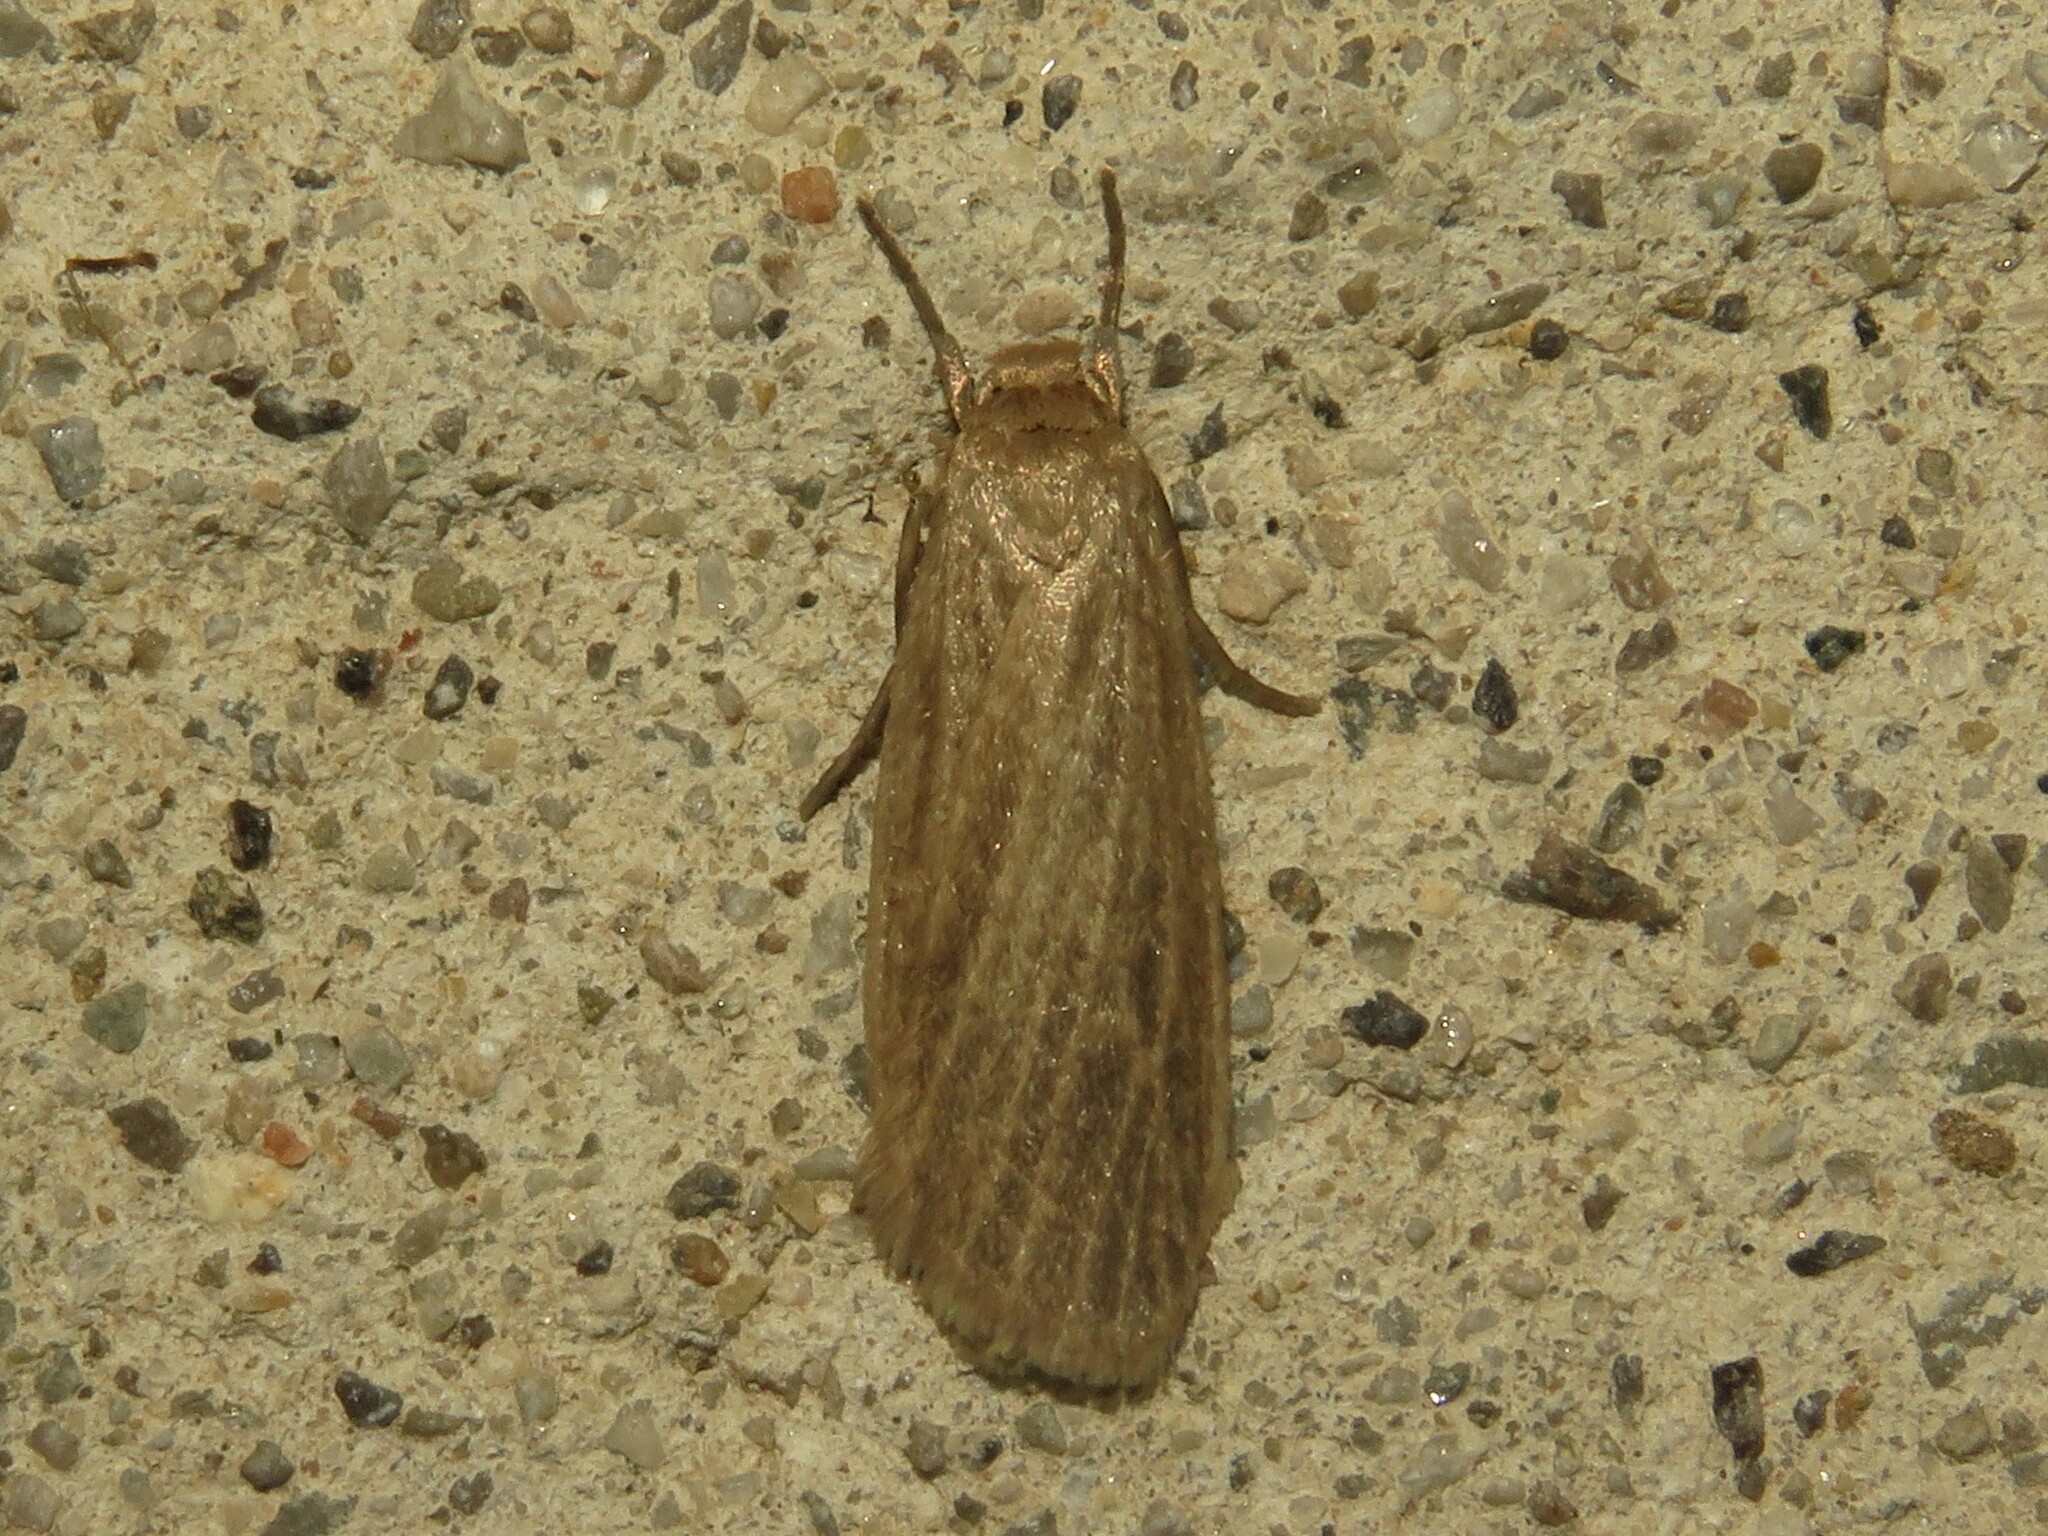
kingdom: Animalia
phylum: Arthropoda
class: Insecta
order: Lepidoptera
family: Erebidae
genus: Crambidia
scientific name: Crambidia pallida
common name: Pale lichen moth
